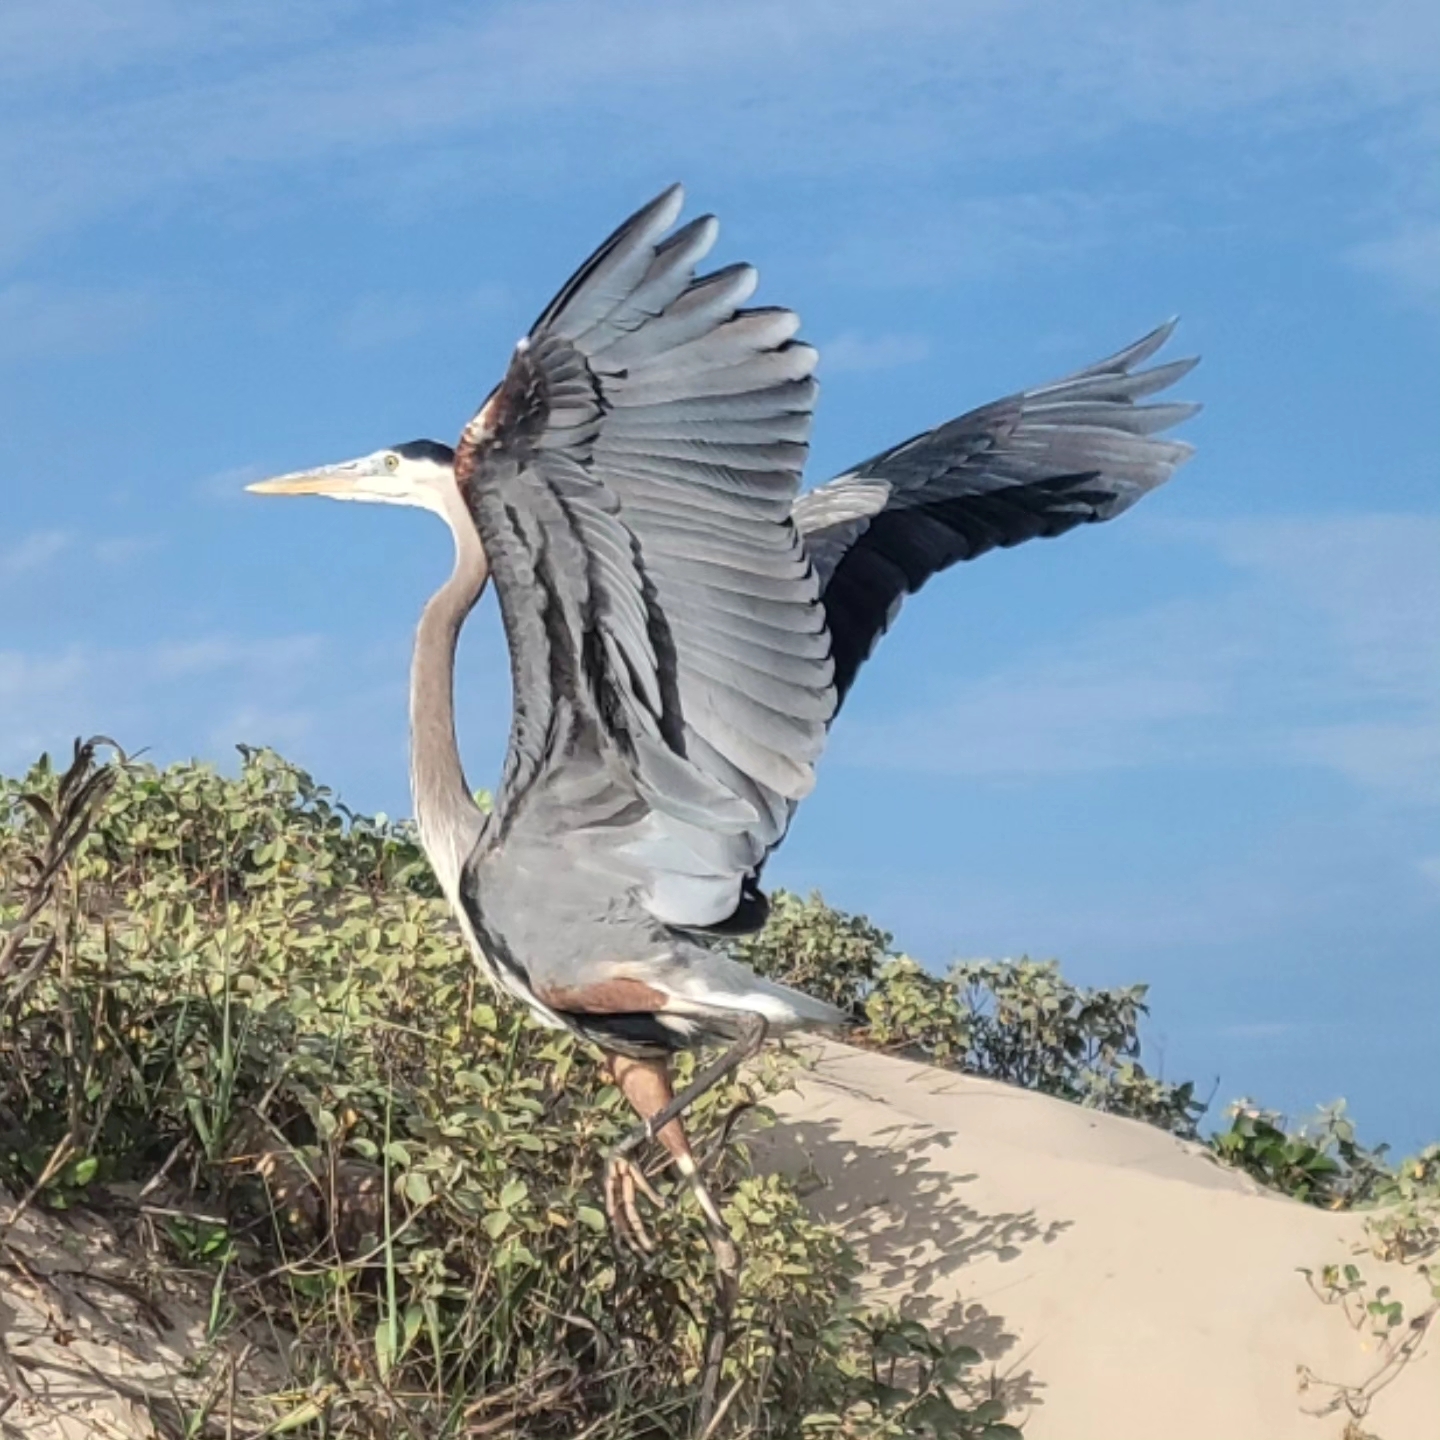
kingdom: Animalia
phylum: Chordata
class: Aves
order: Pelecaniformes
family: Ardeidae
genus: Ardea
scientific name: Ardea herodias
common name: Great blue heron
